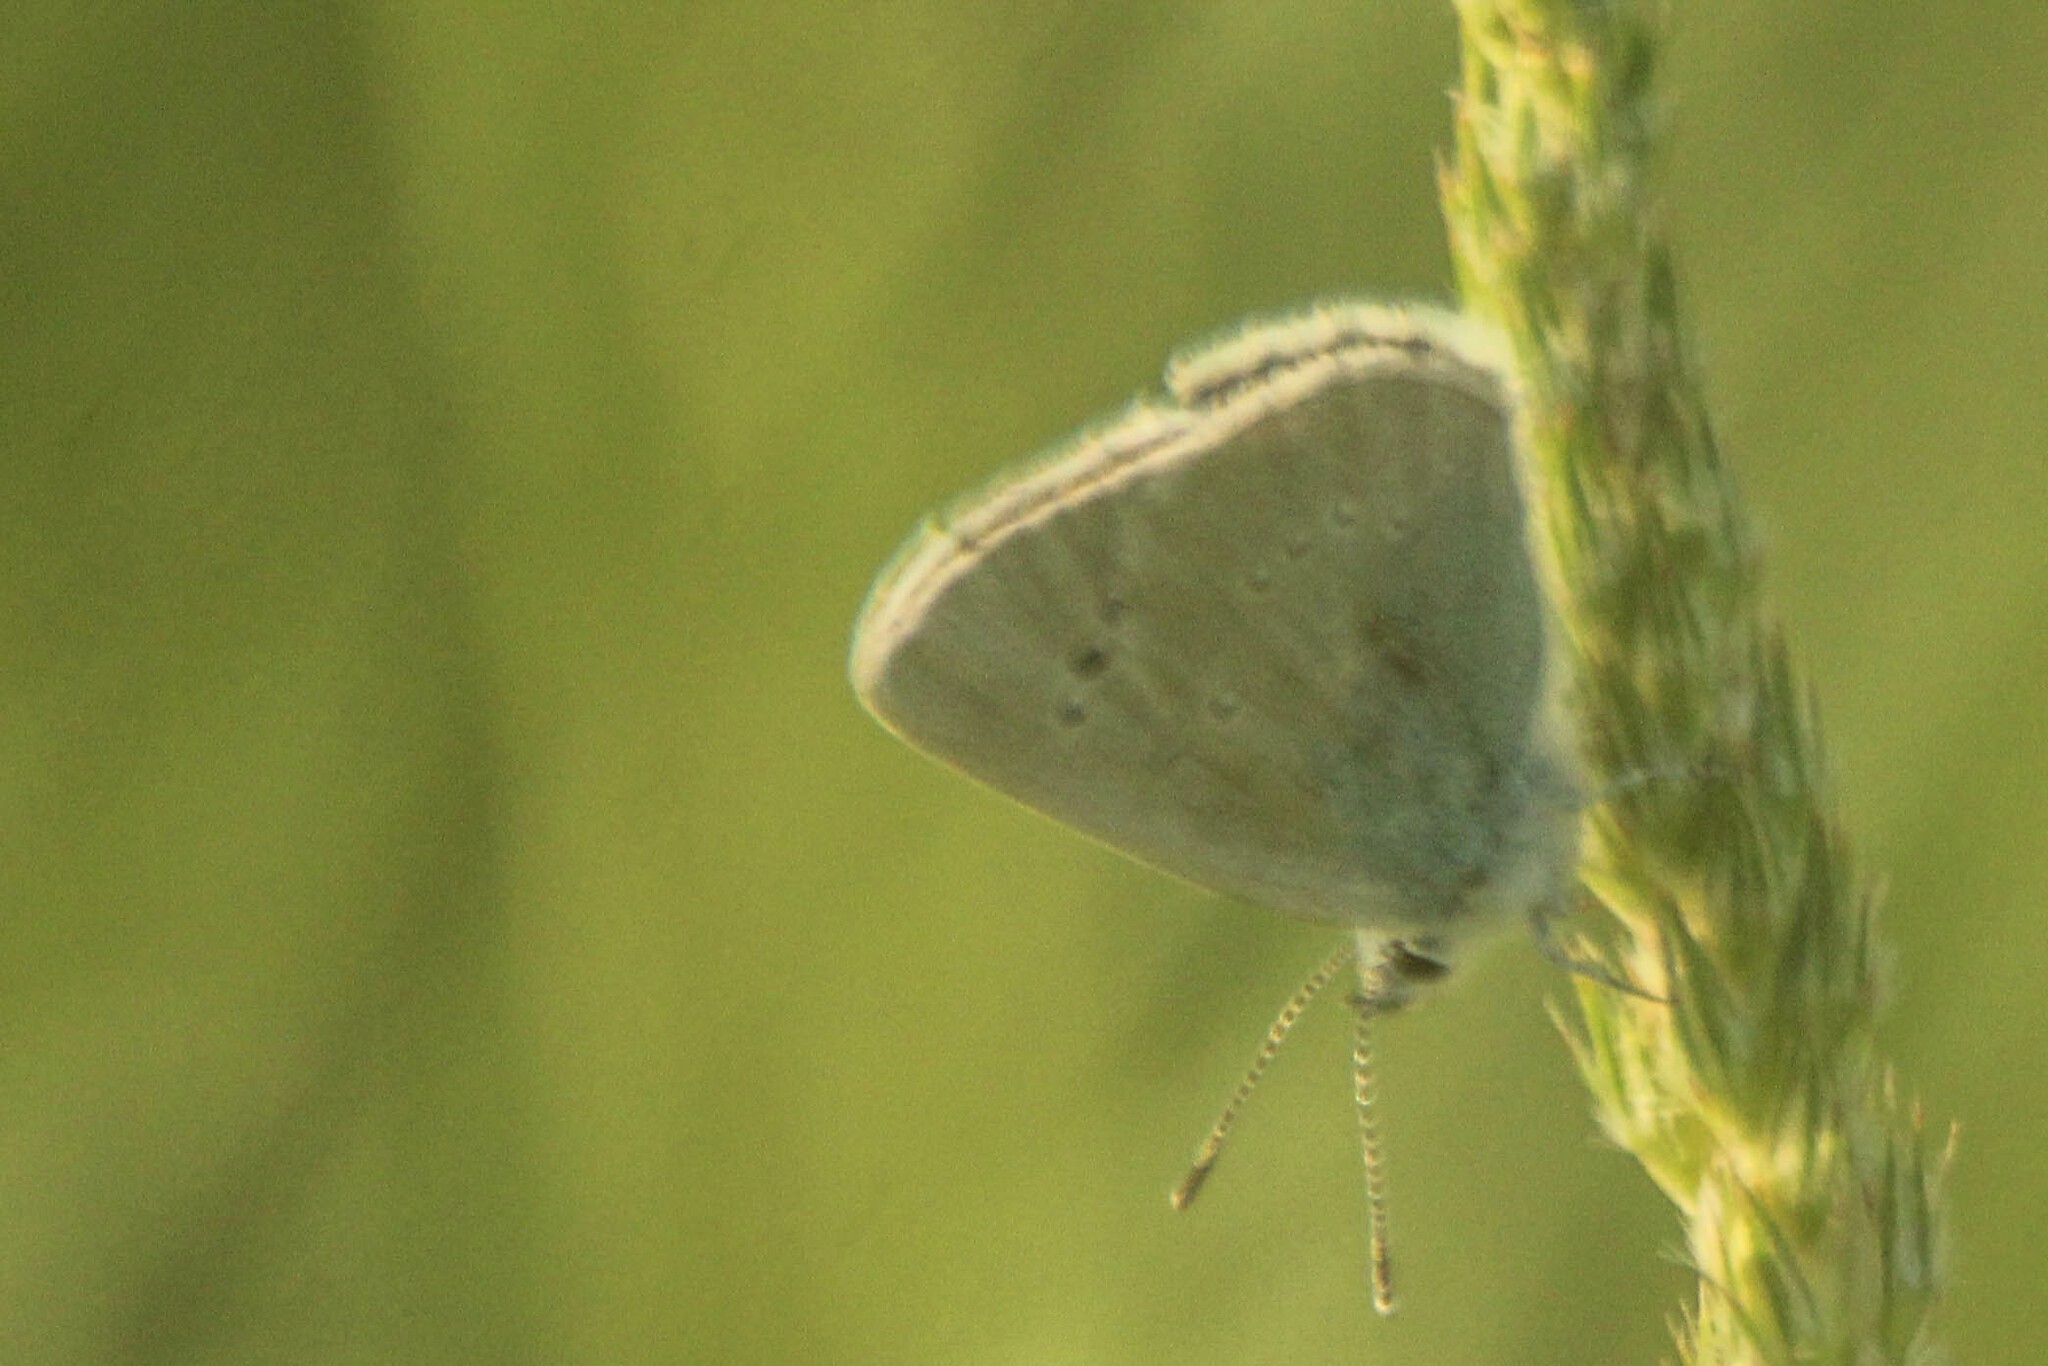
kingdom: Animalia
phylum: Arthropoda
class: Insecta
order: Lepidoptera
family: Lycaenidae
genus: Glaucopsyche
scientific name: Glaucopsyche alexis
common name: Green-underside blue
